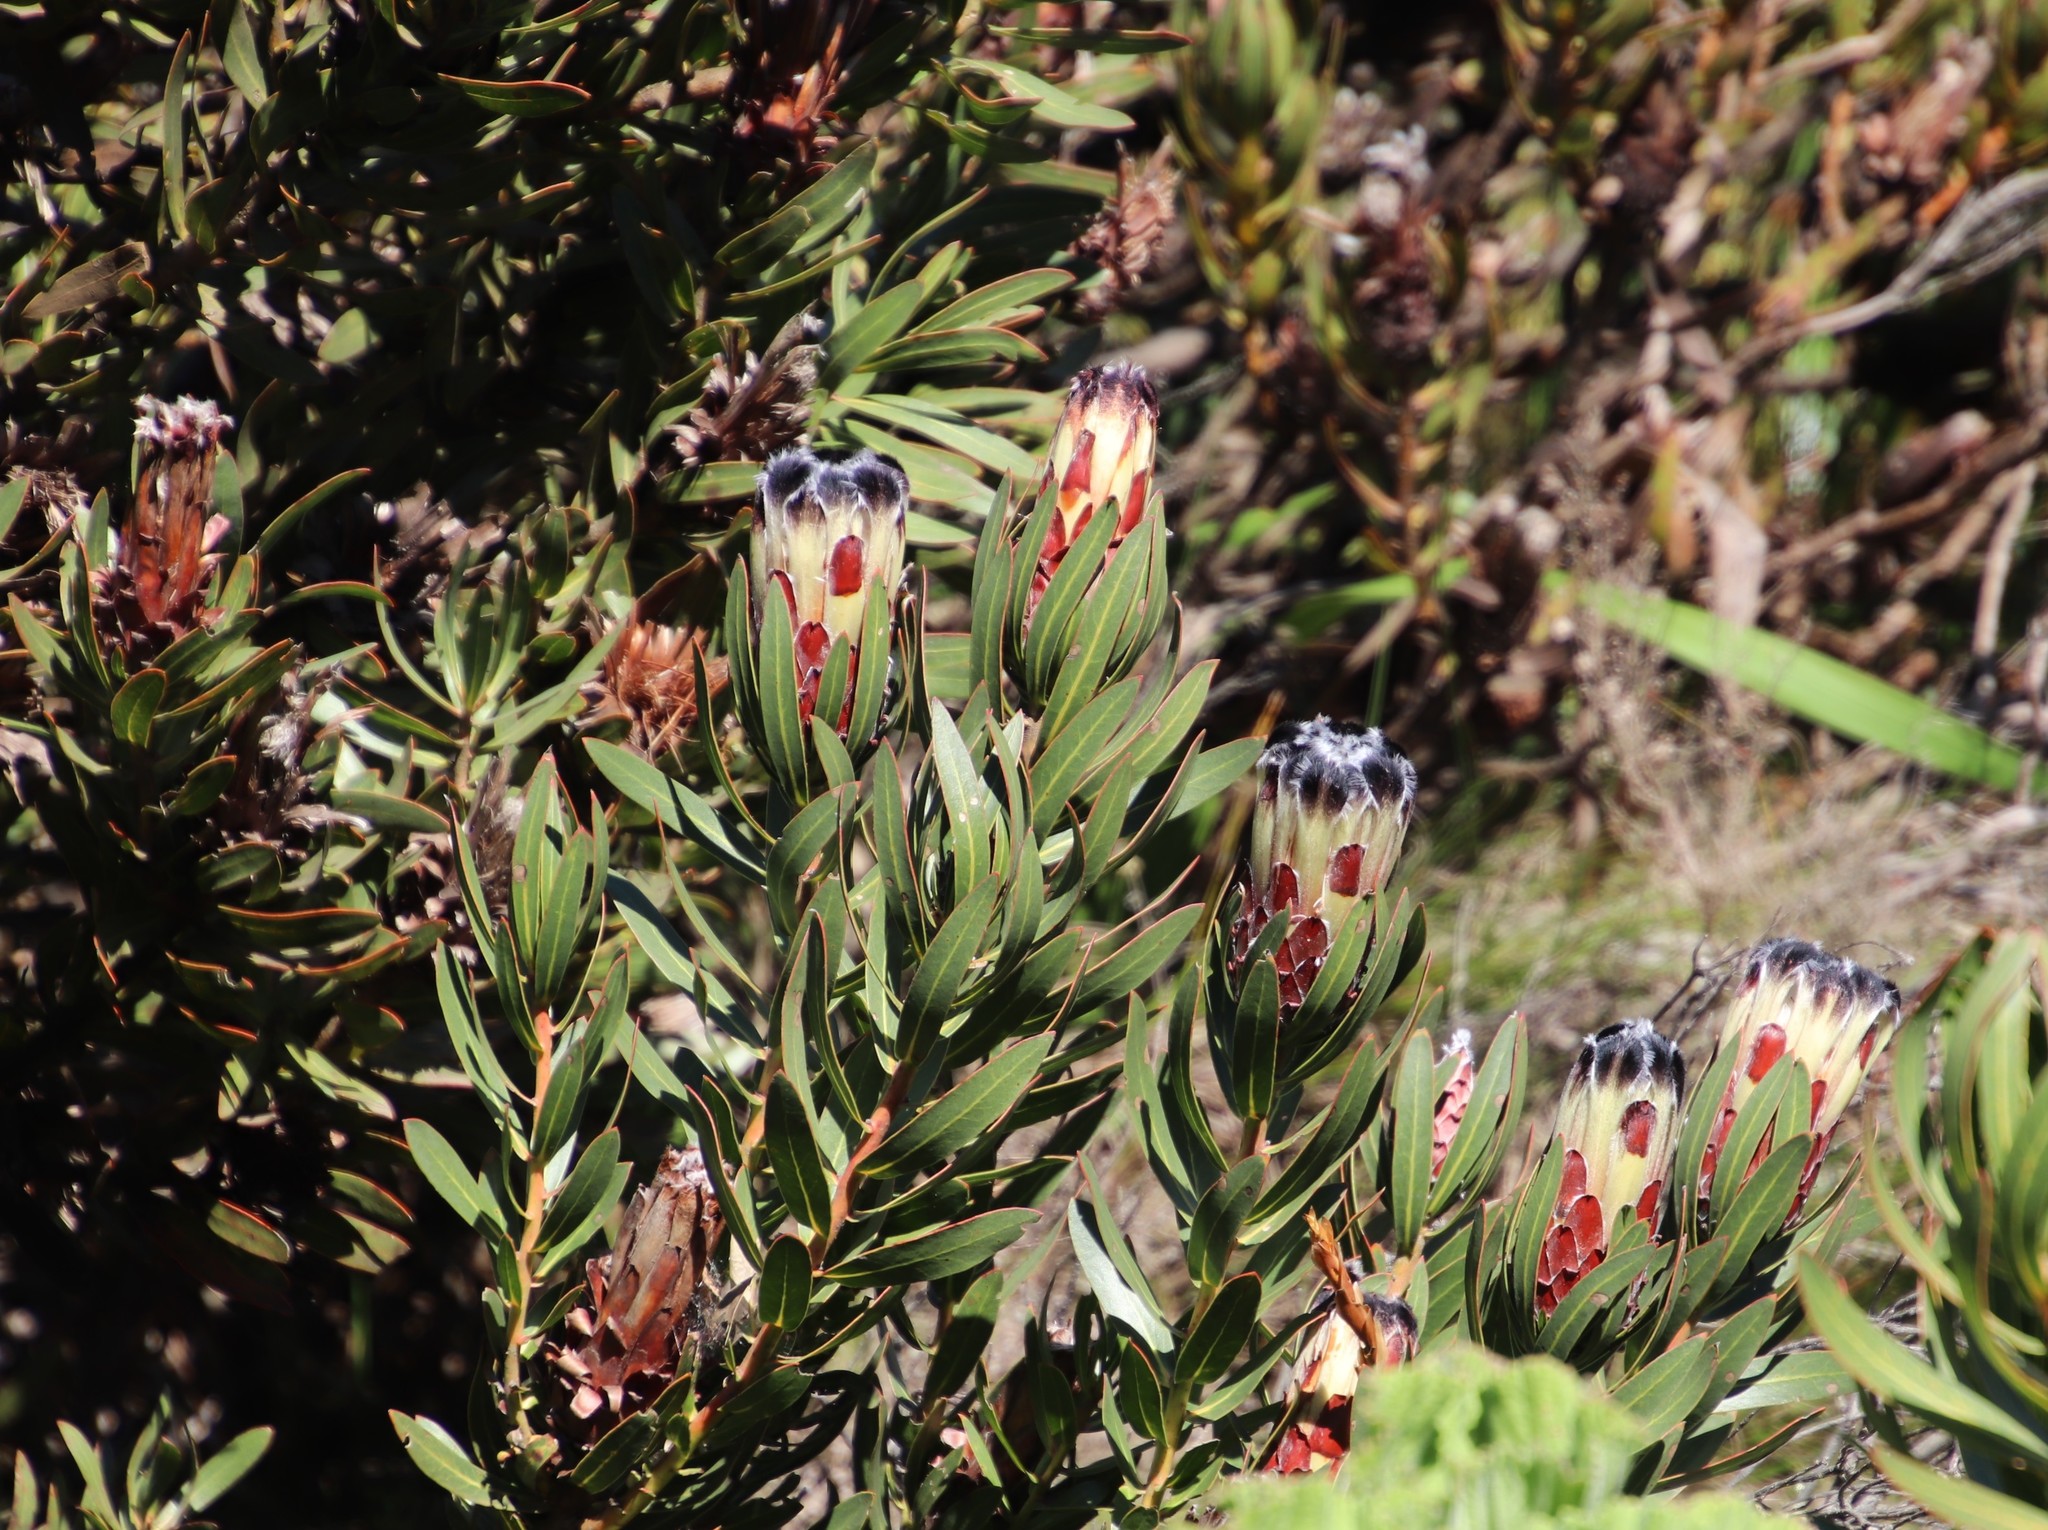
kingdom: Plantae
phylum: Tracheophyta
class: Magnoliopsida
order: Proteales
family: Proteaceae
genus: Protea
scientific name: Protea lepidocarpodendron
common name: Black-bearded protea
